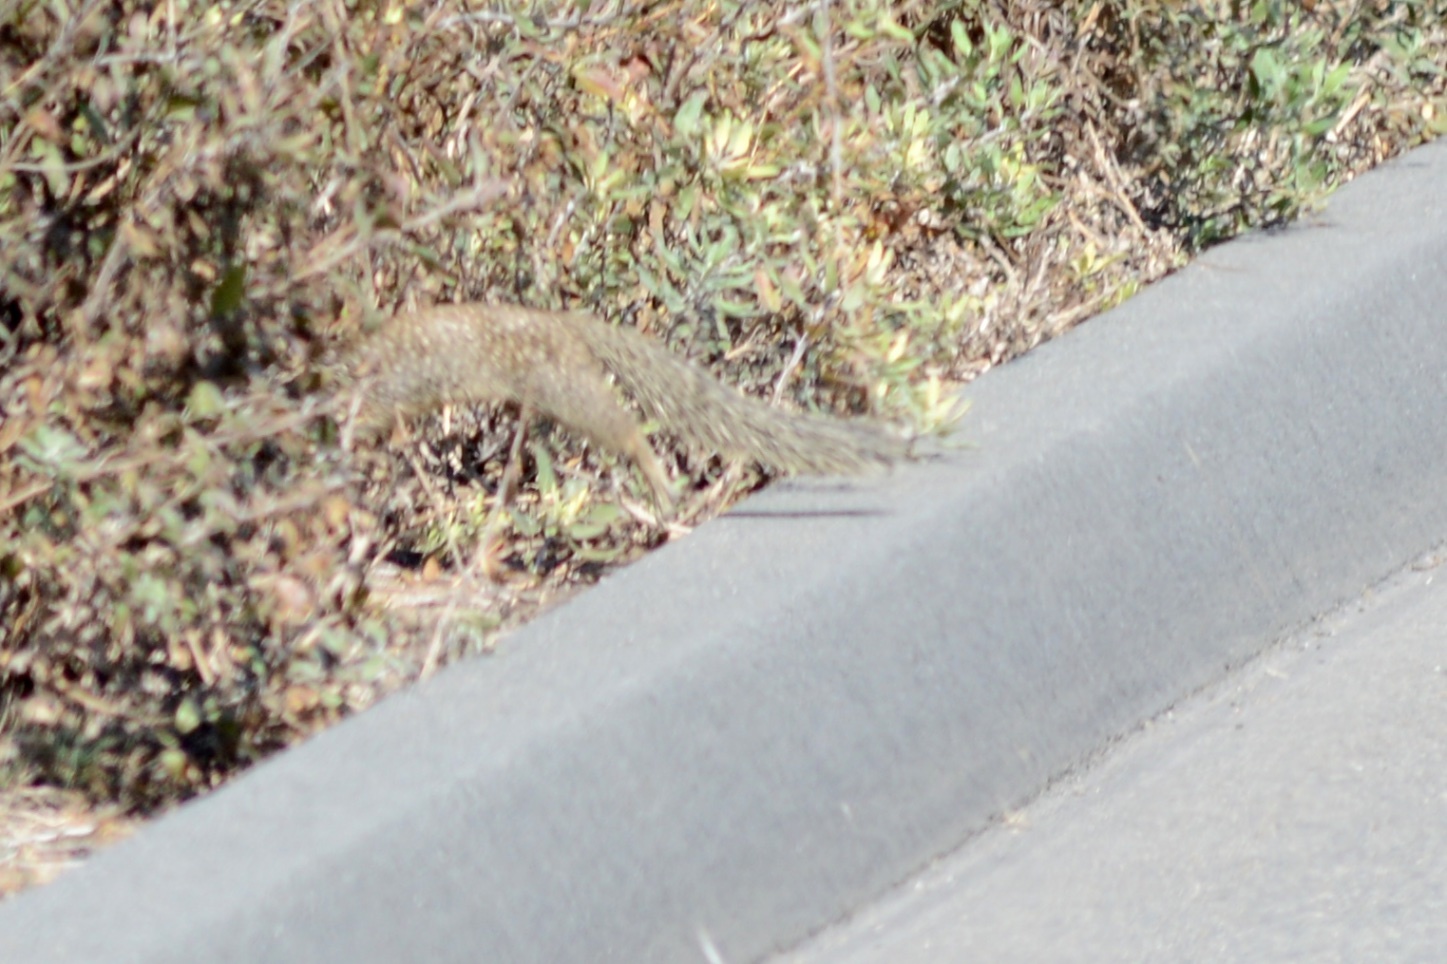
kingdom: Animalia
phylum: Chordata
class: Mammalia
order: Rodentia
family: Sciuridae
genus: Otospermophilus
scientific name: Otospermophilus beecheyi
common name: California ground squirrel
